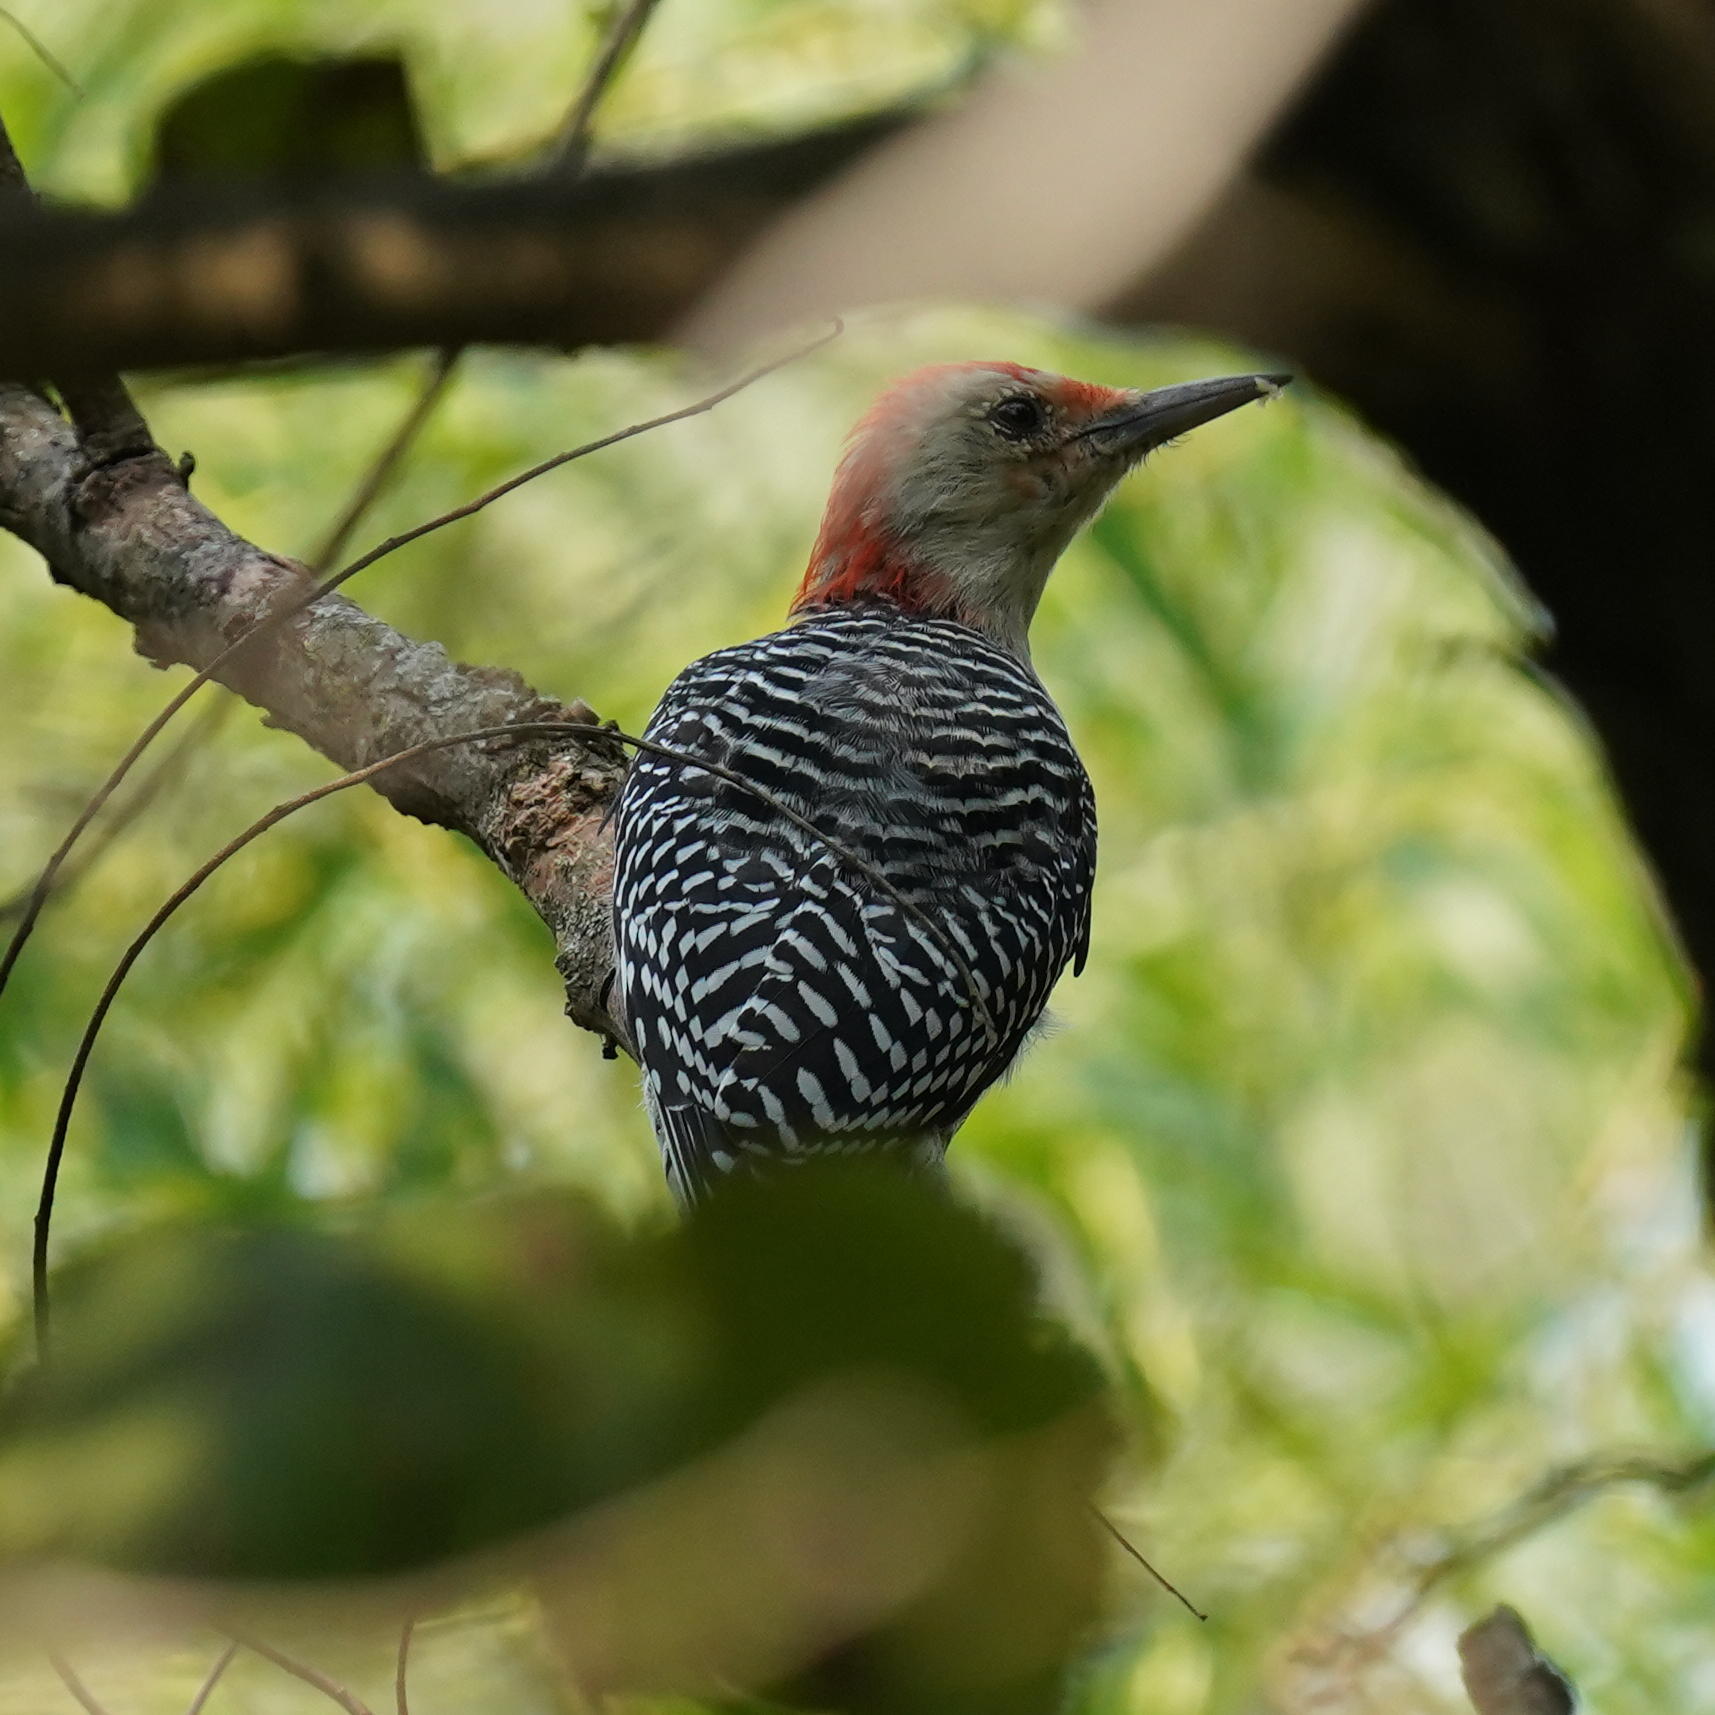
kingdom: Animalia
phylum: Chordata
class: Aves
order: Piciformes
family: Picidae
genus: Melanerpes
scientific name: Melanerpes carolinus
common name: Red-bellied woodpecker
